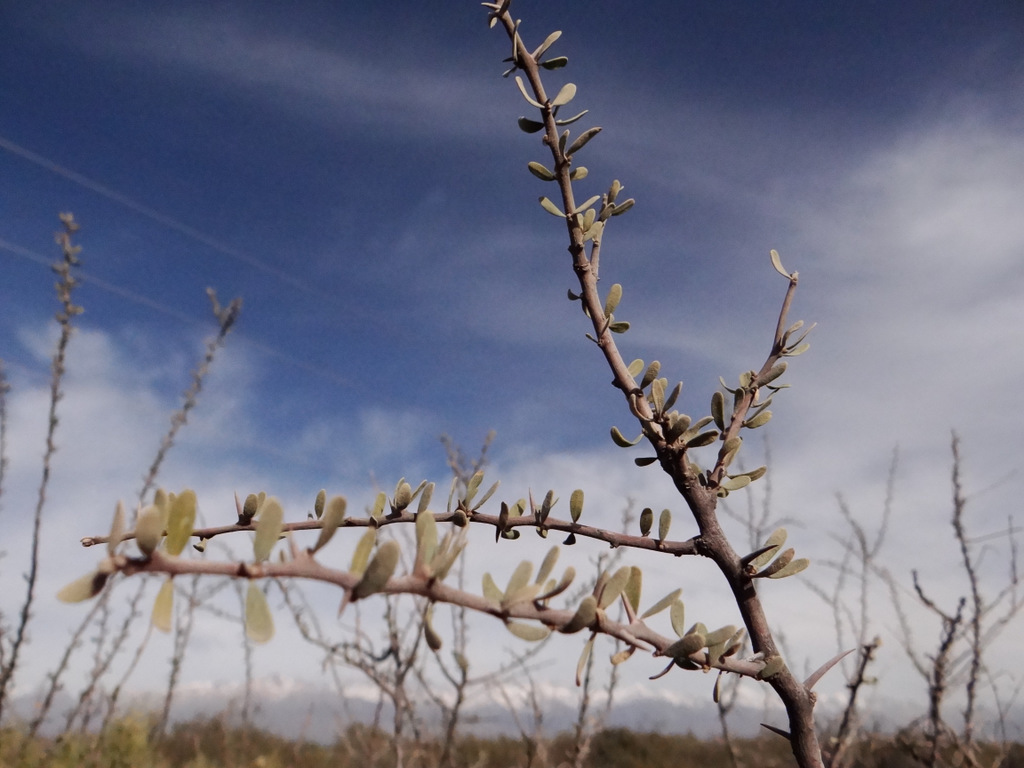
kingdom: Plantae
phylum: Tracheophyta
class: Magnoliopsida
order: Caryophyllales
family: Nyctaginaceae
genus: Bougainvillea
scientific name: Bougainvillea spinosa
